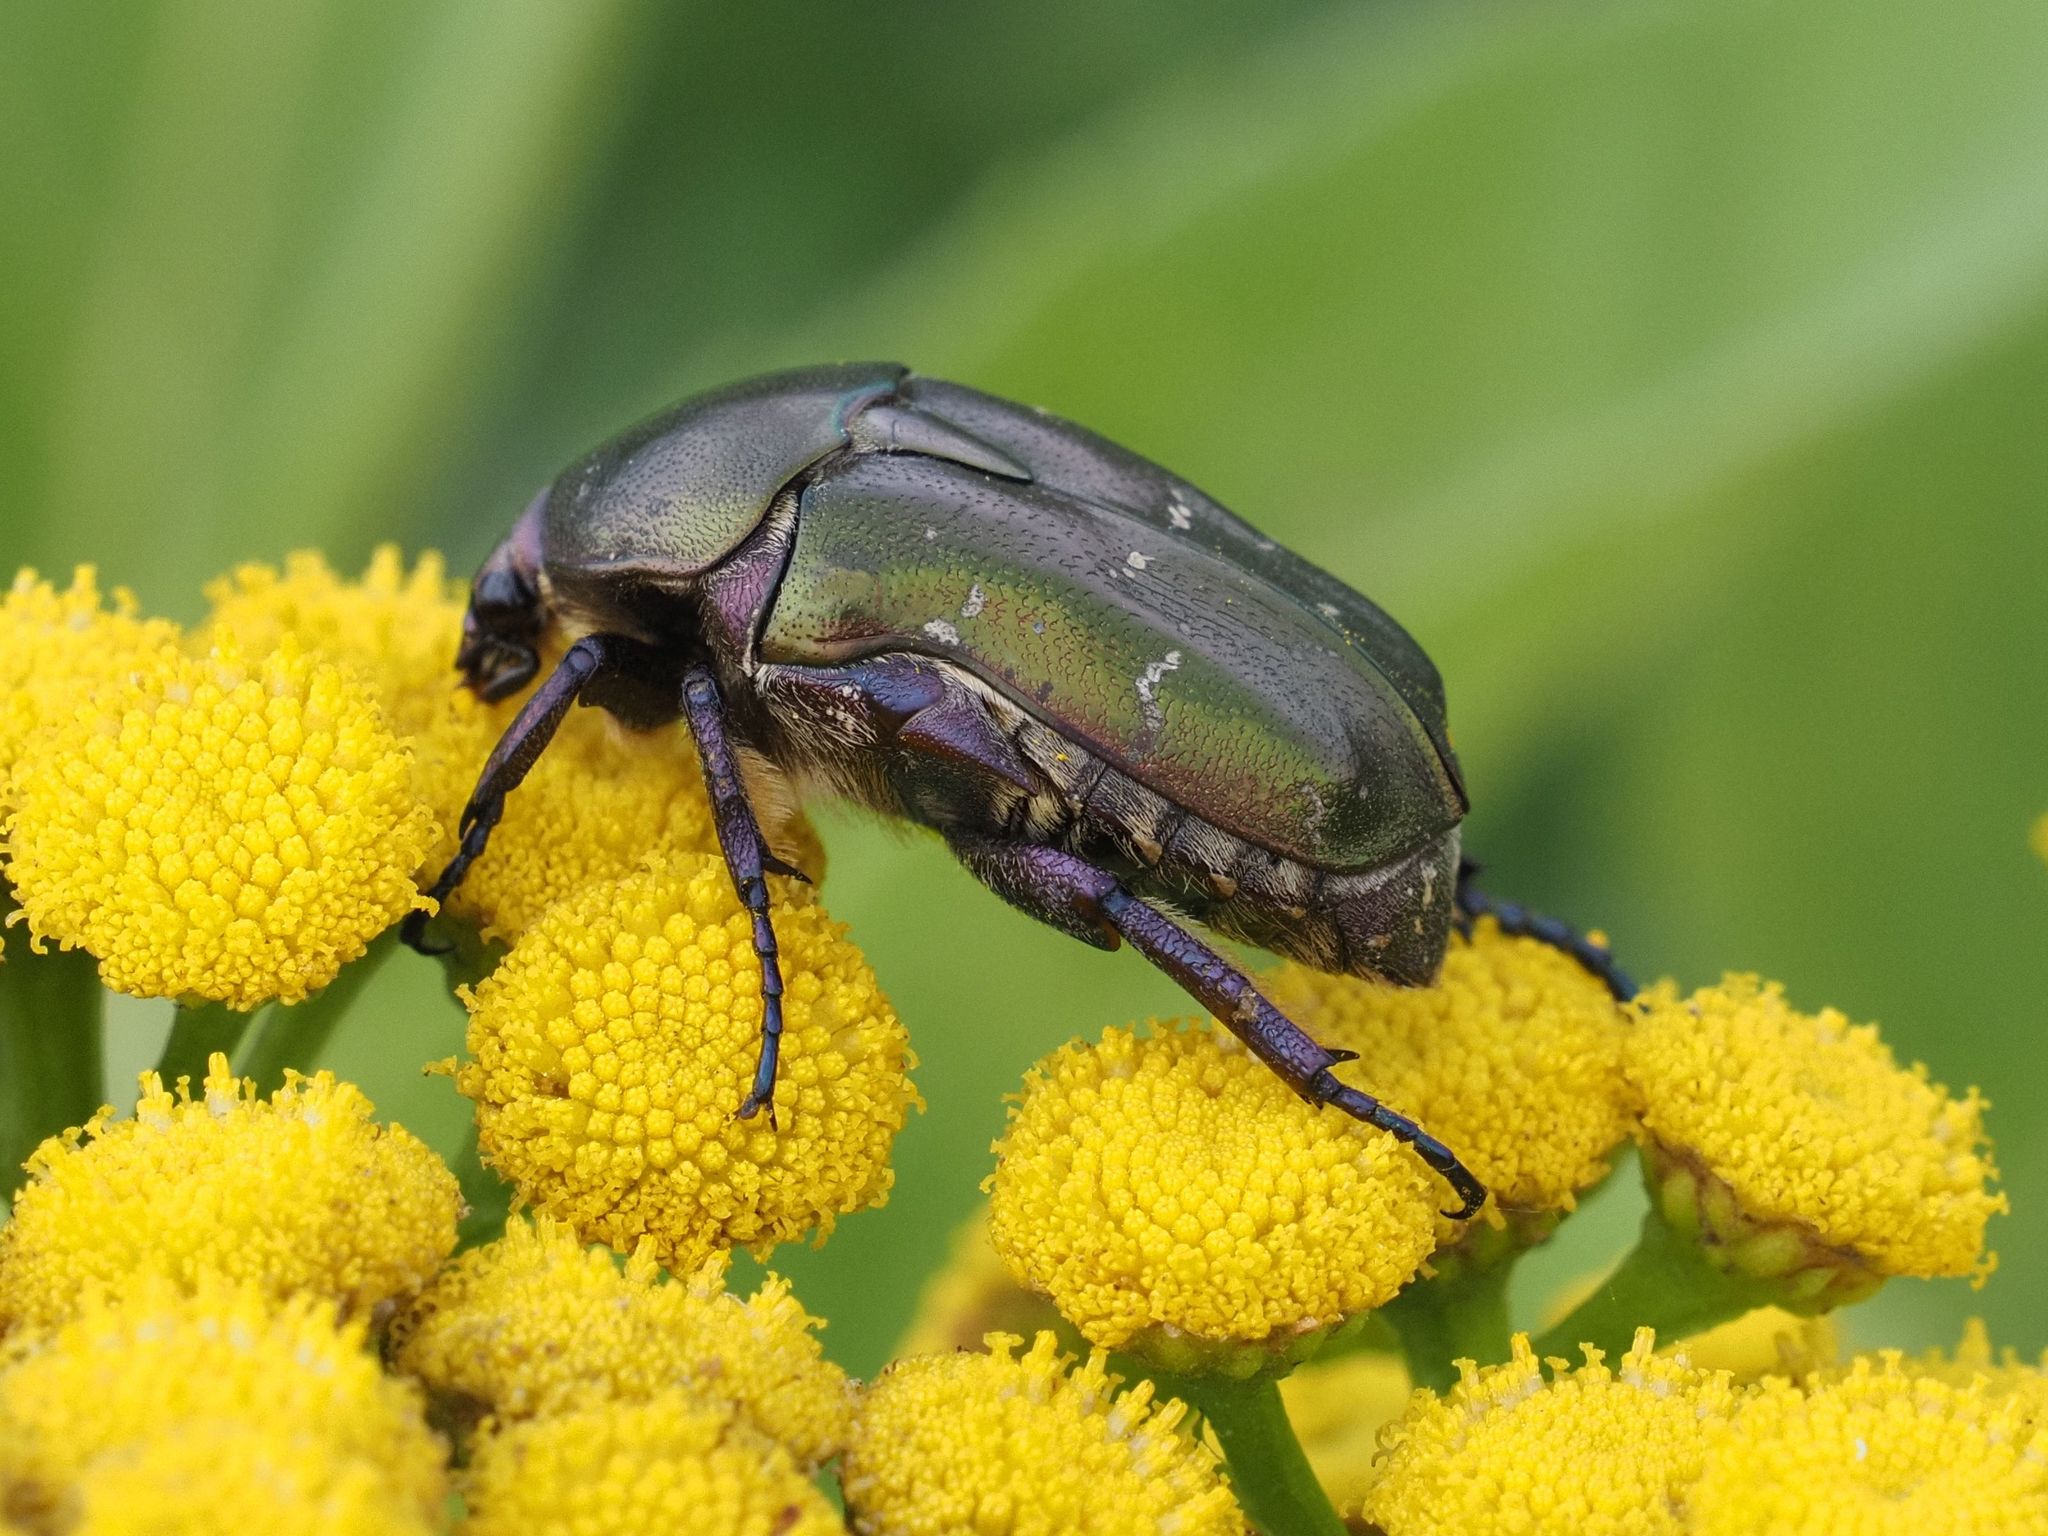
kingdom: Animalia
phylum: Arthropoda
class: Insecta
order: Coleoptera
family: Scarabaeidae
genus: Protaetia
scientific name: Protaetia cuprea
